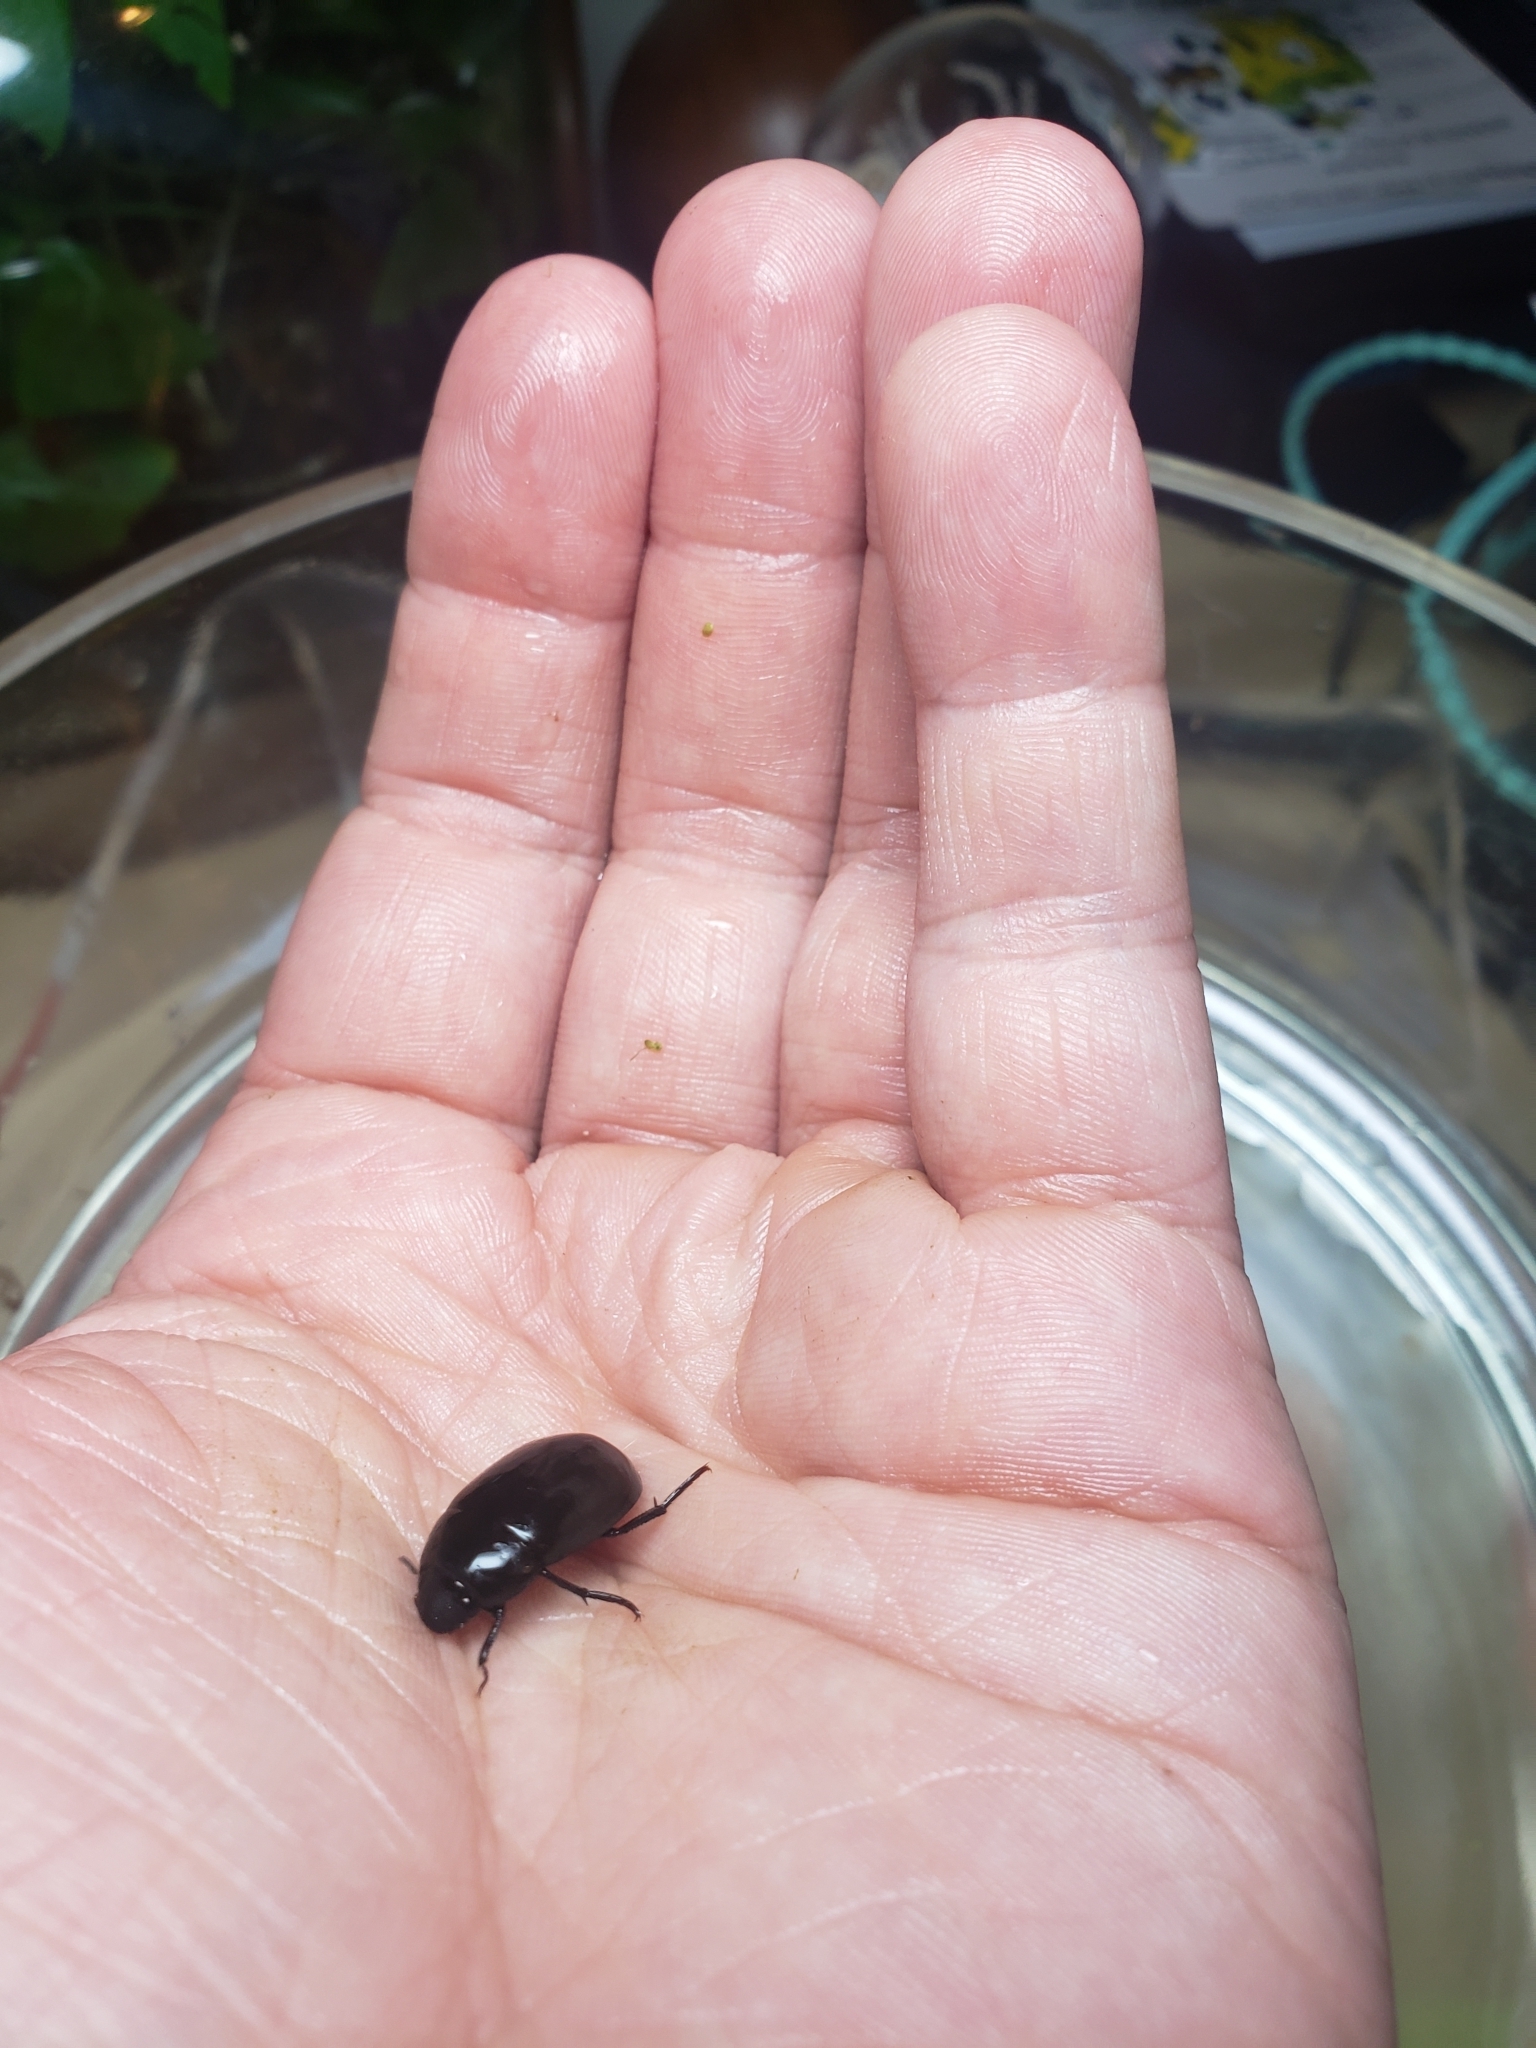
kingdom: Animalia
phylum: Arthropoda
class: Insecta
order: Coleoptera
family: Hydrophilidae
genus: Hydrochara
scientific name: Hydrochara obtusata
